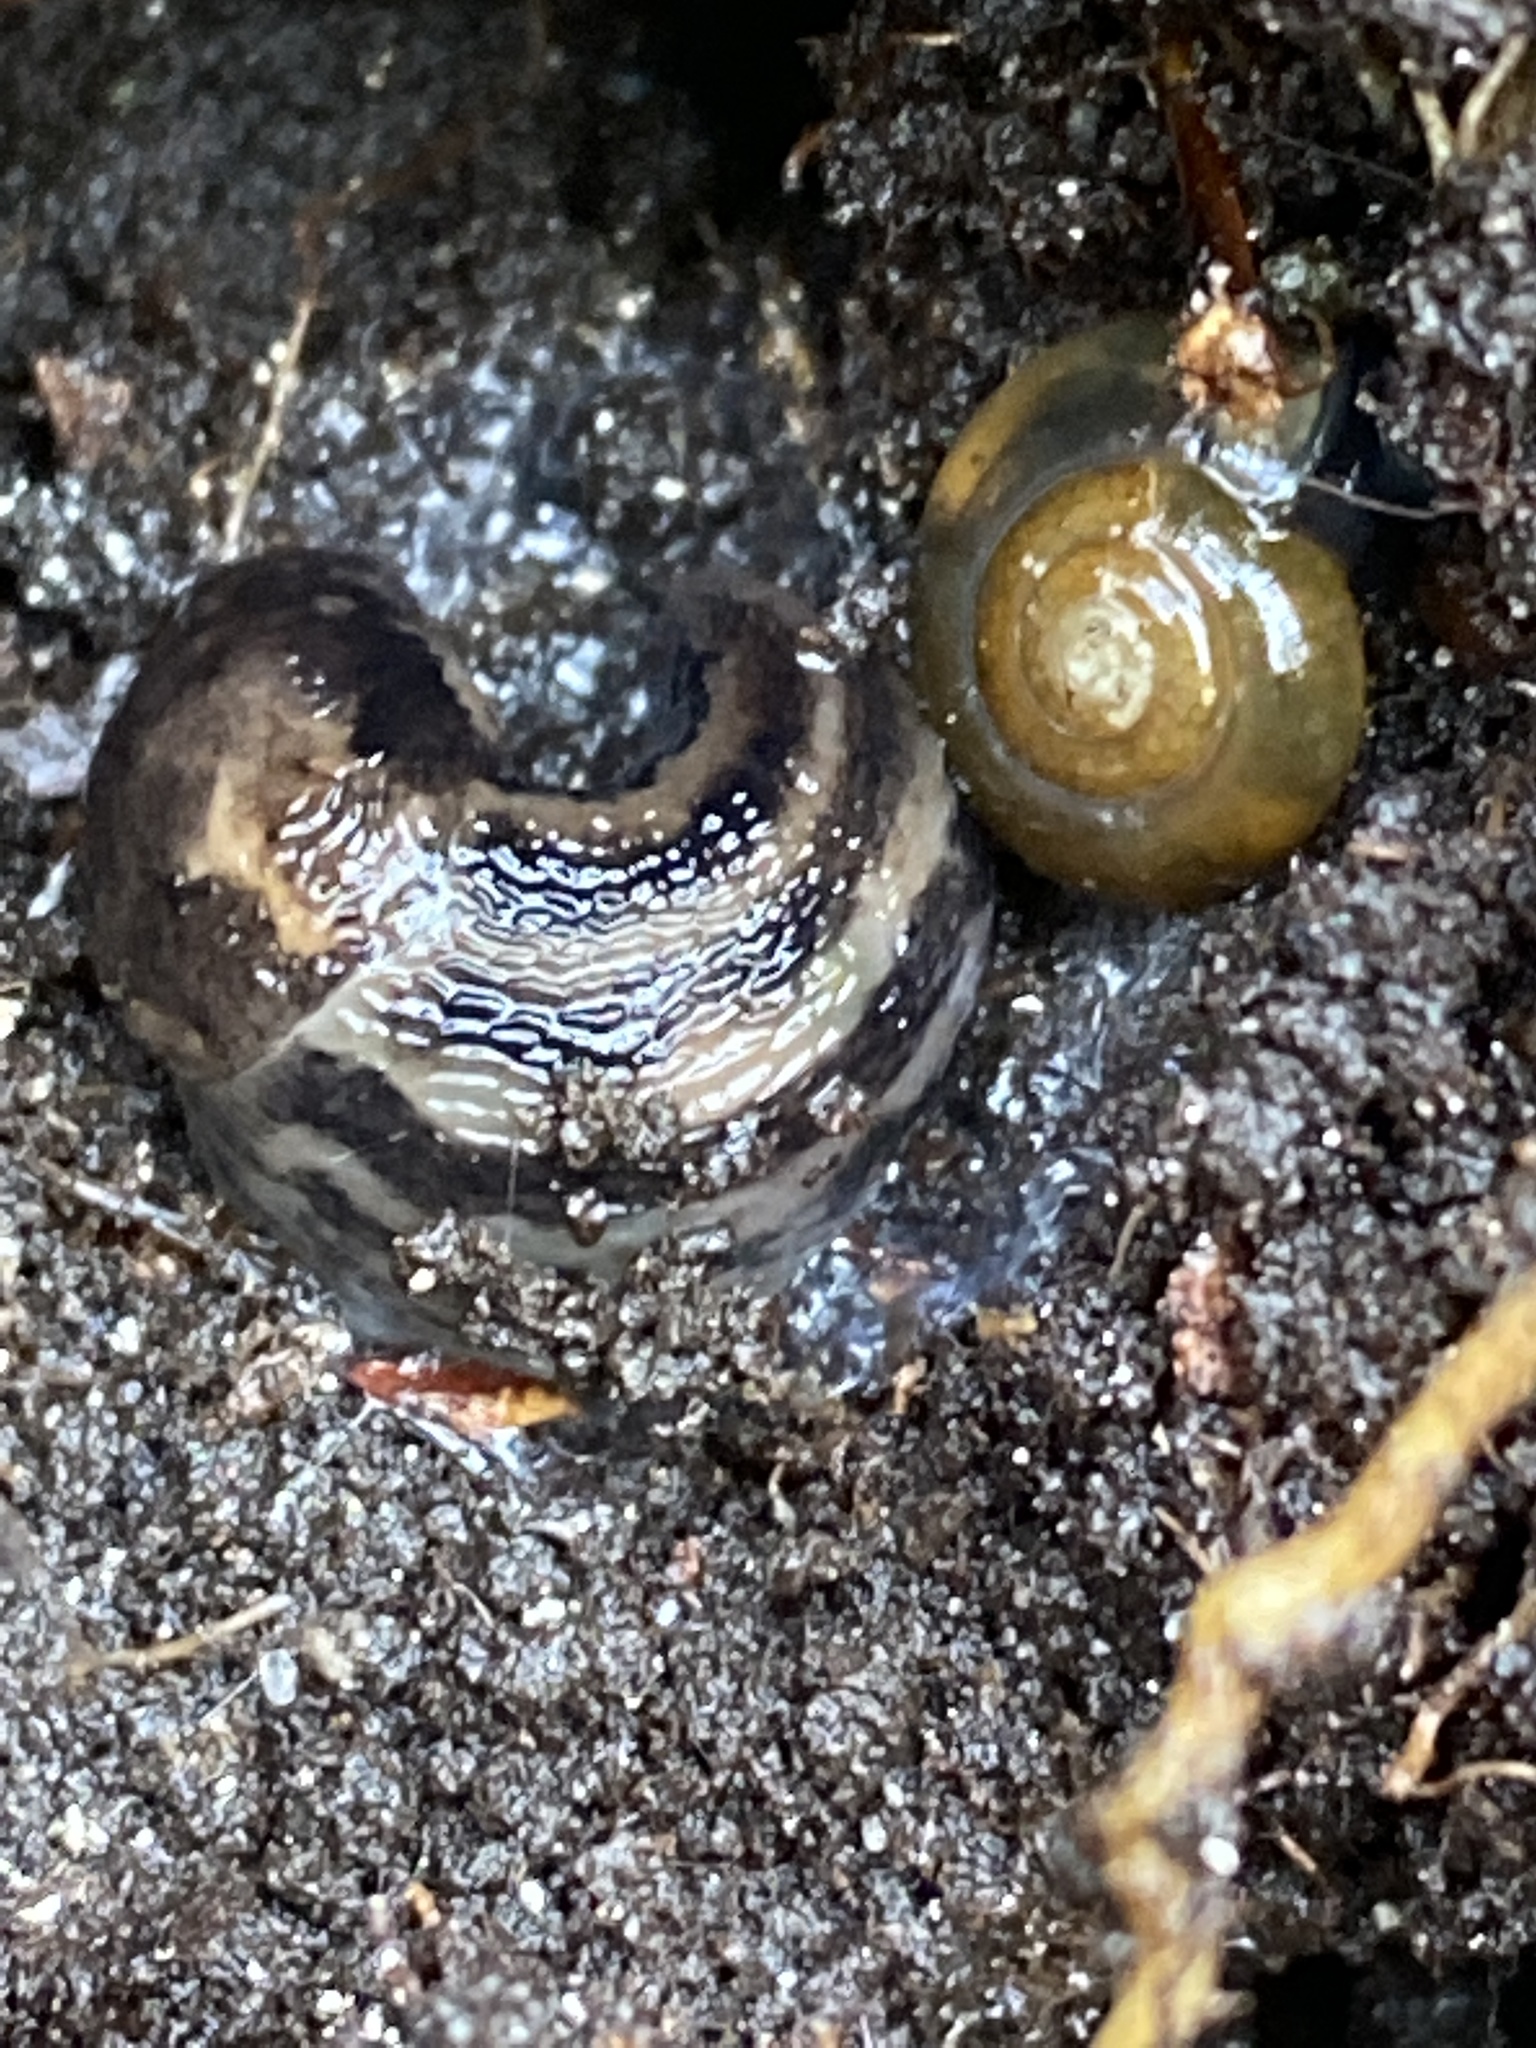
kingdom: Animalia
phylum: Mollusca
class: Gastropoda
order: Stylommatophora
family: Limacidae
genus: Limax
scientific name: Limax maximus
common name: Great grey slug
